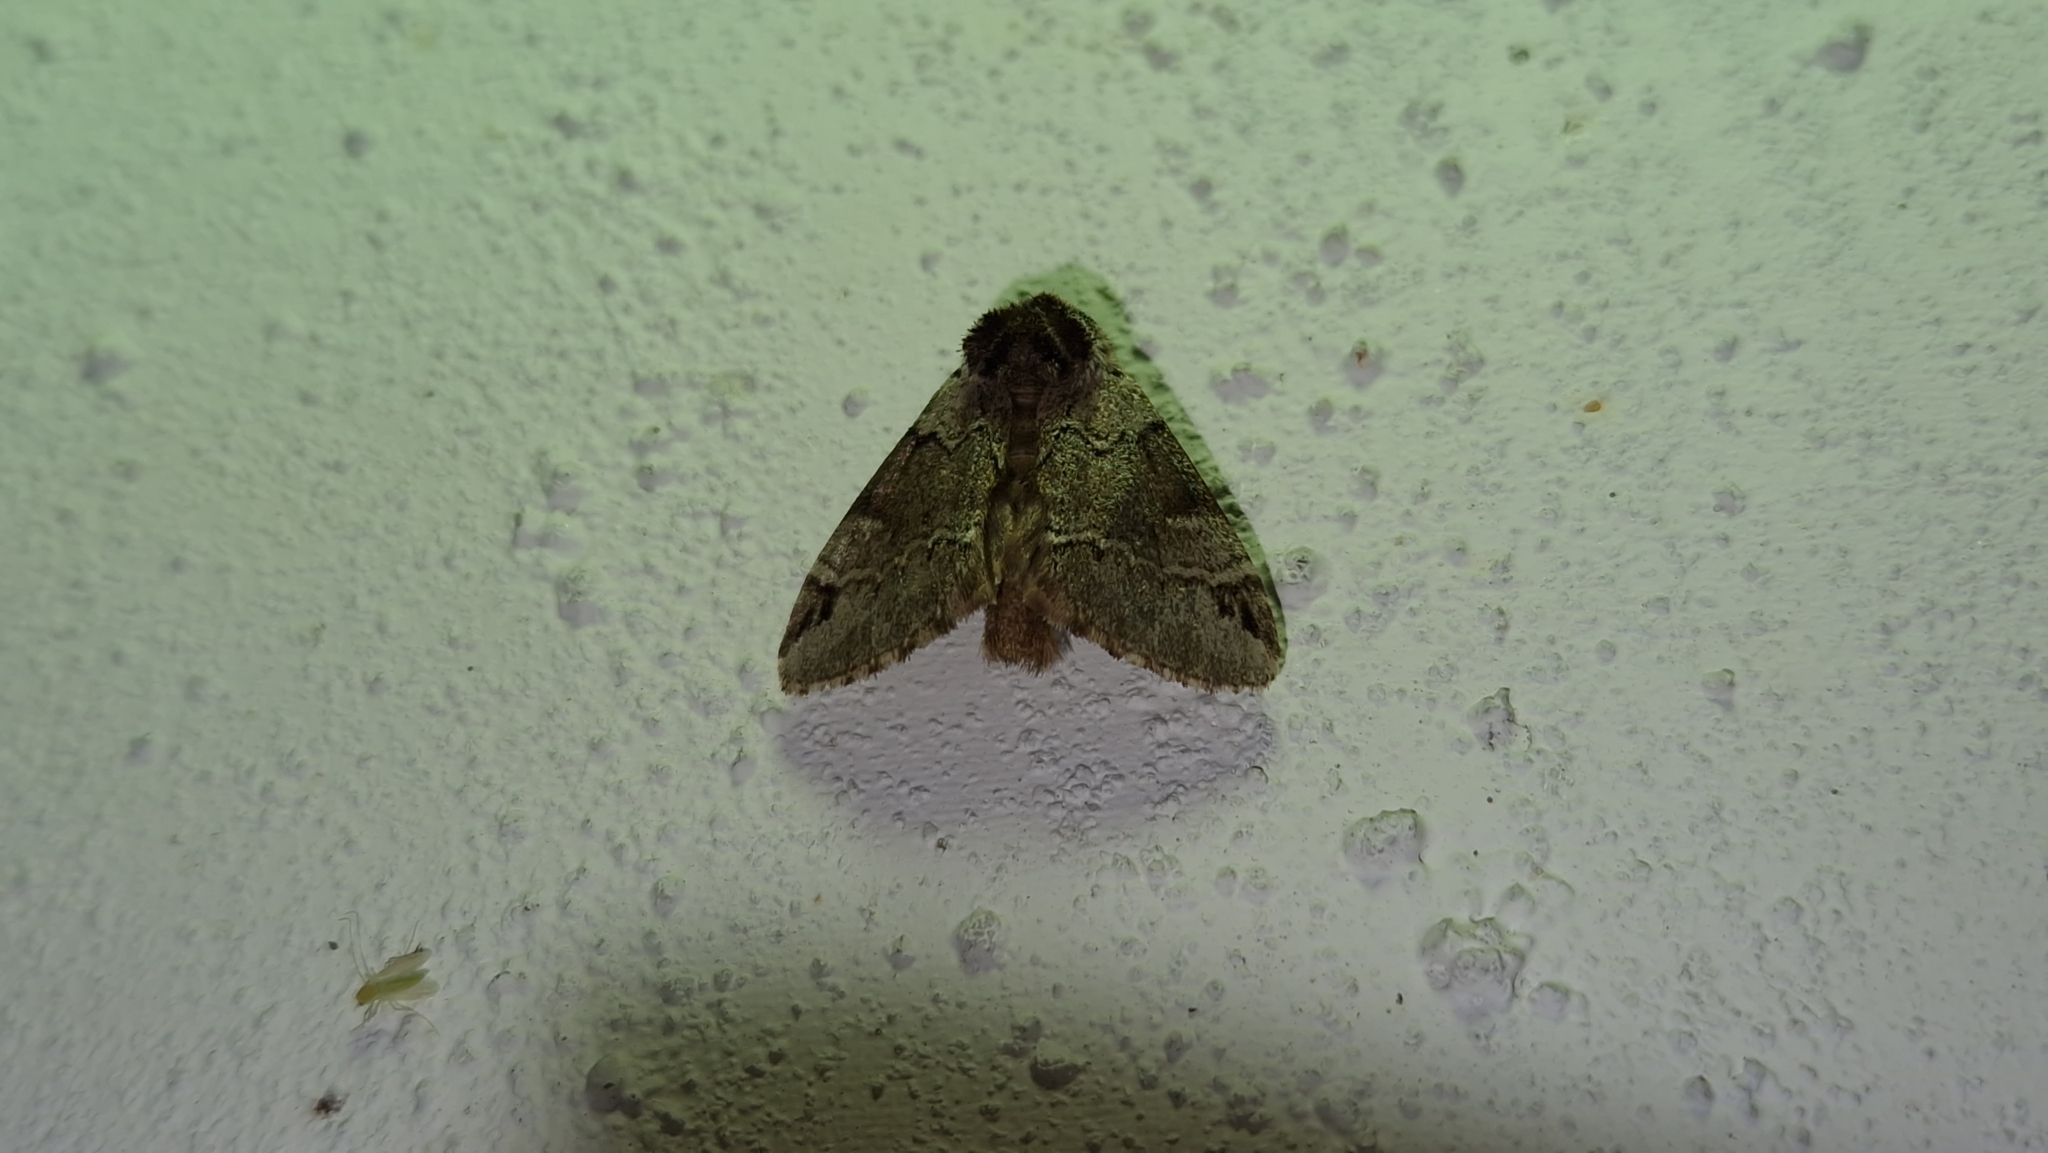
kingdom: Animalia
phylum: Arthropoda
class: Insecta
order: Lepidoptera
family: Notodontidae
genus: Drymonia
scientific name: Drymonia obliterata
